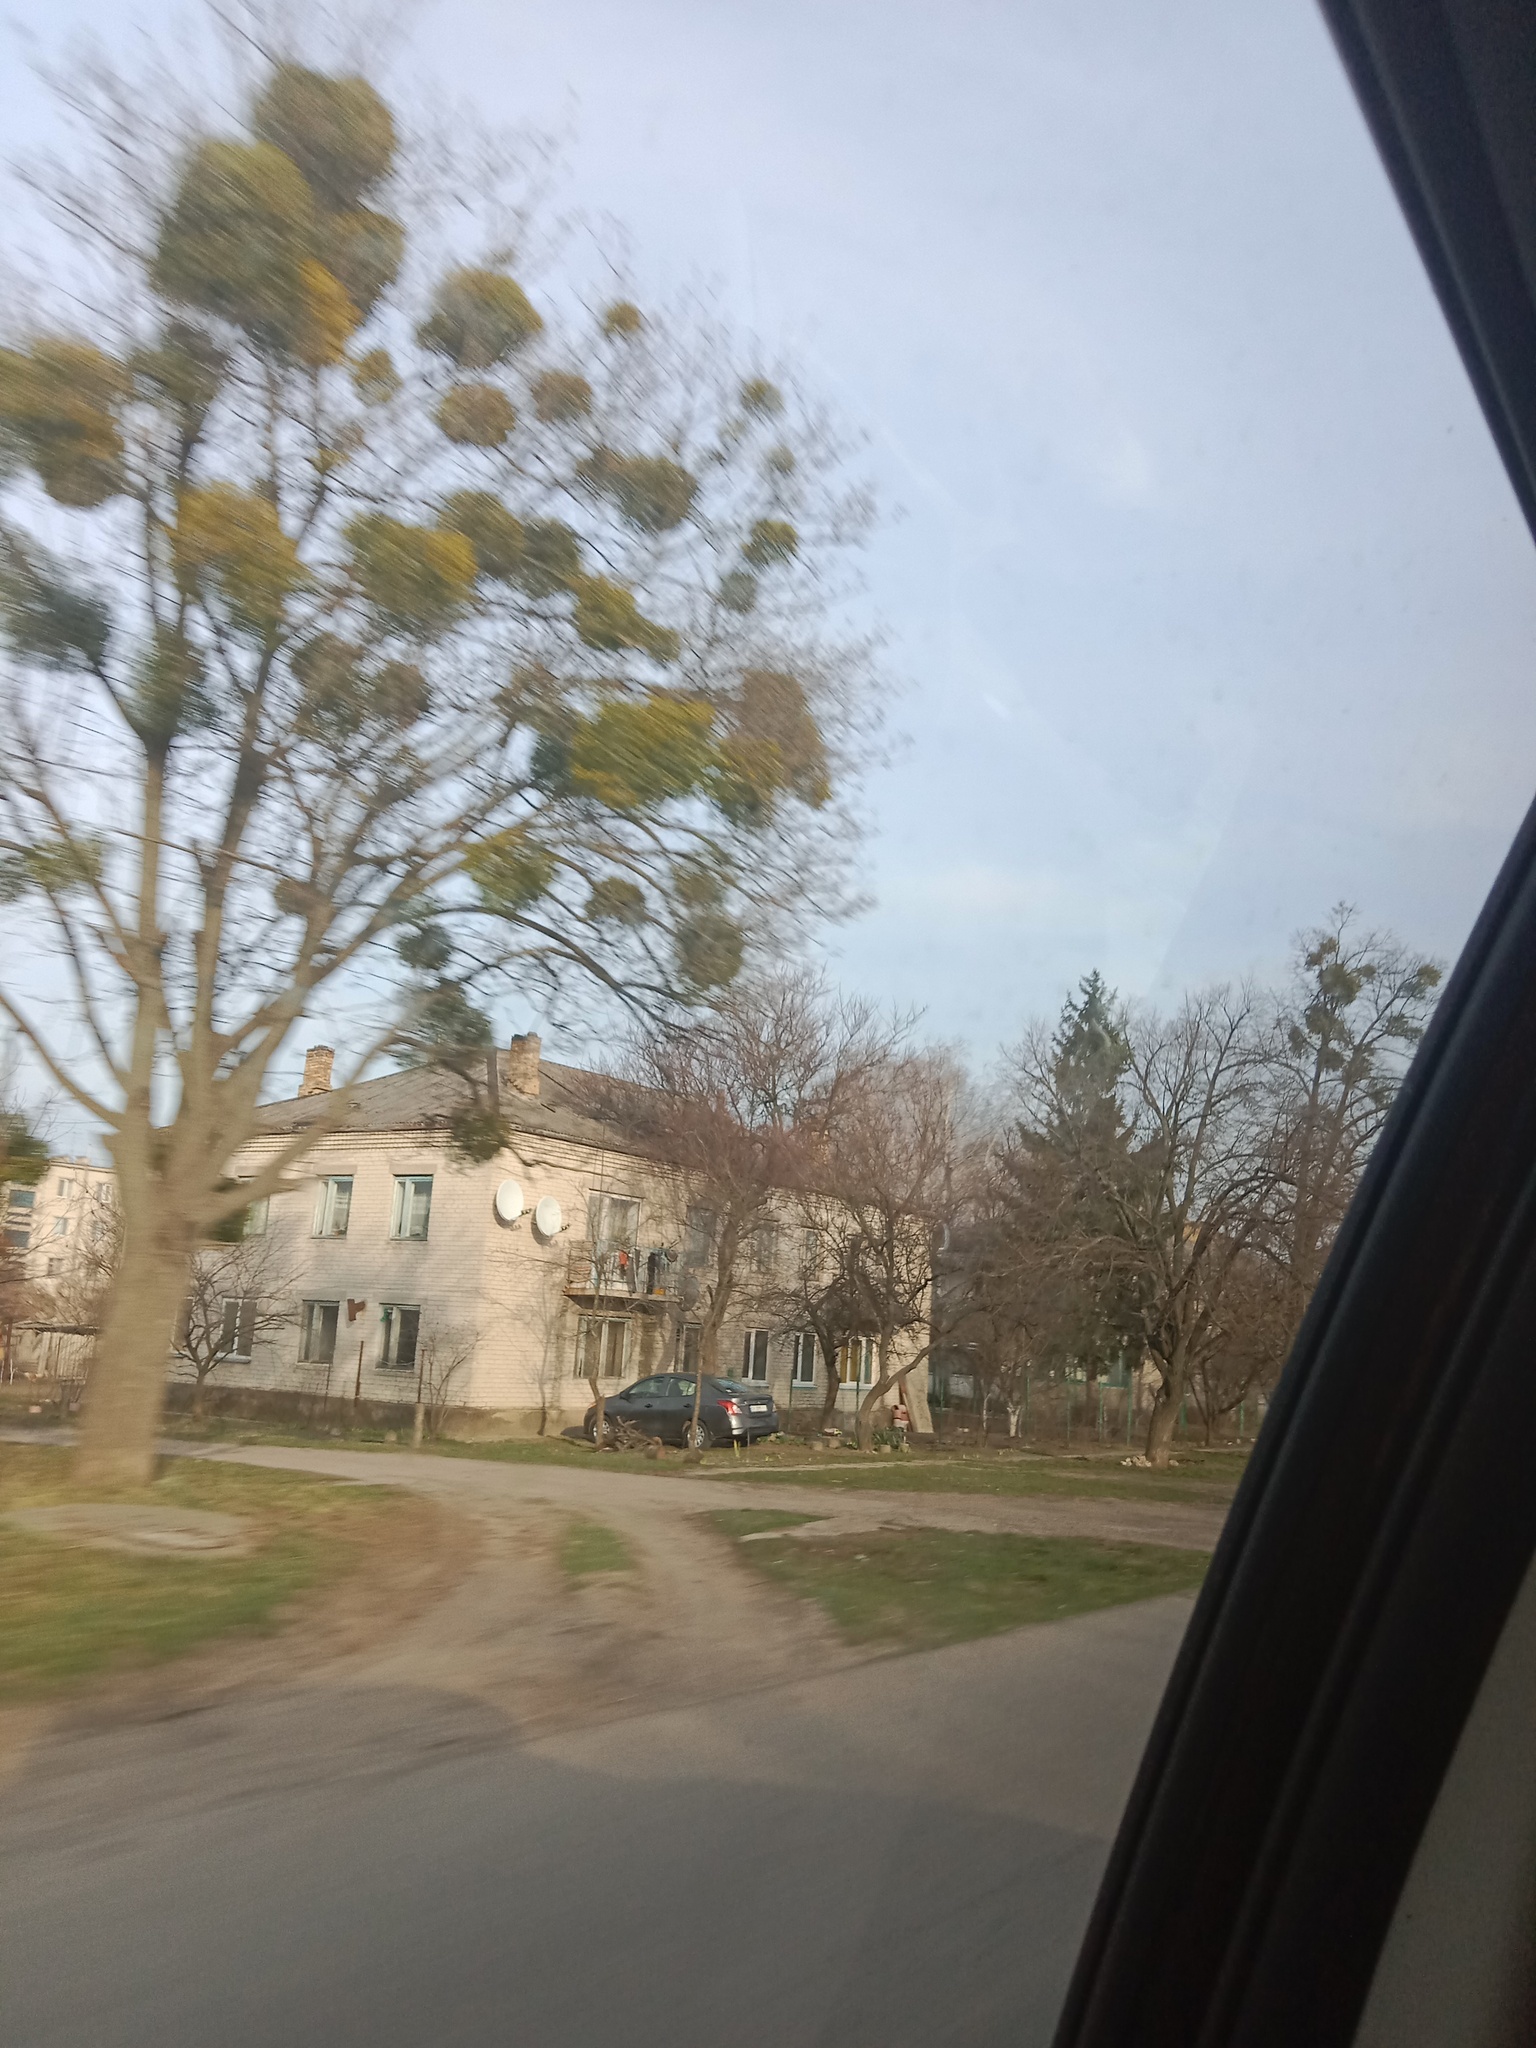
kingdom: Plantae
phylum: Tracheophyta
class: Magnoliopsida
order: Santalales
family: Viscaceae
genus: Viscum
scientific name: Viscum album
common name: Mistletoe
